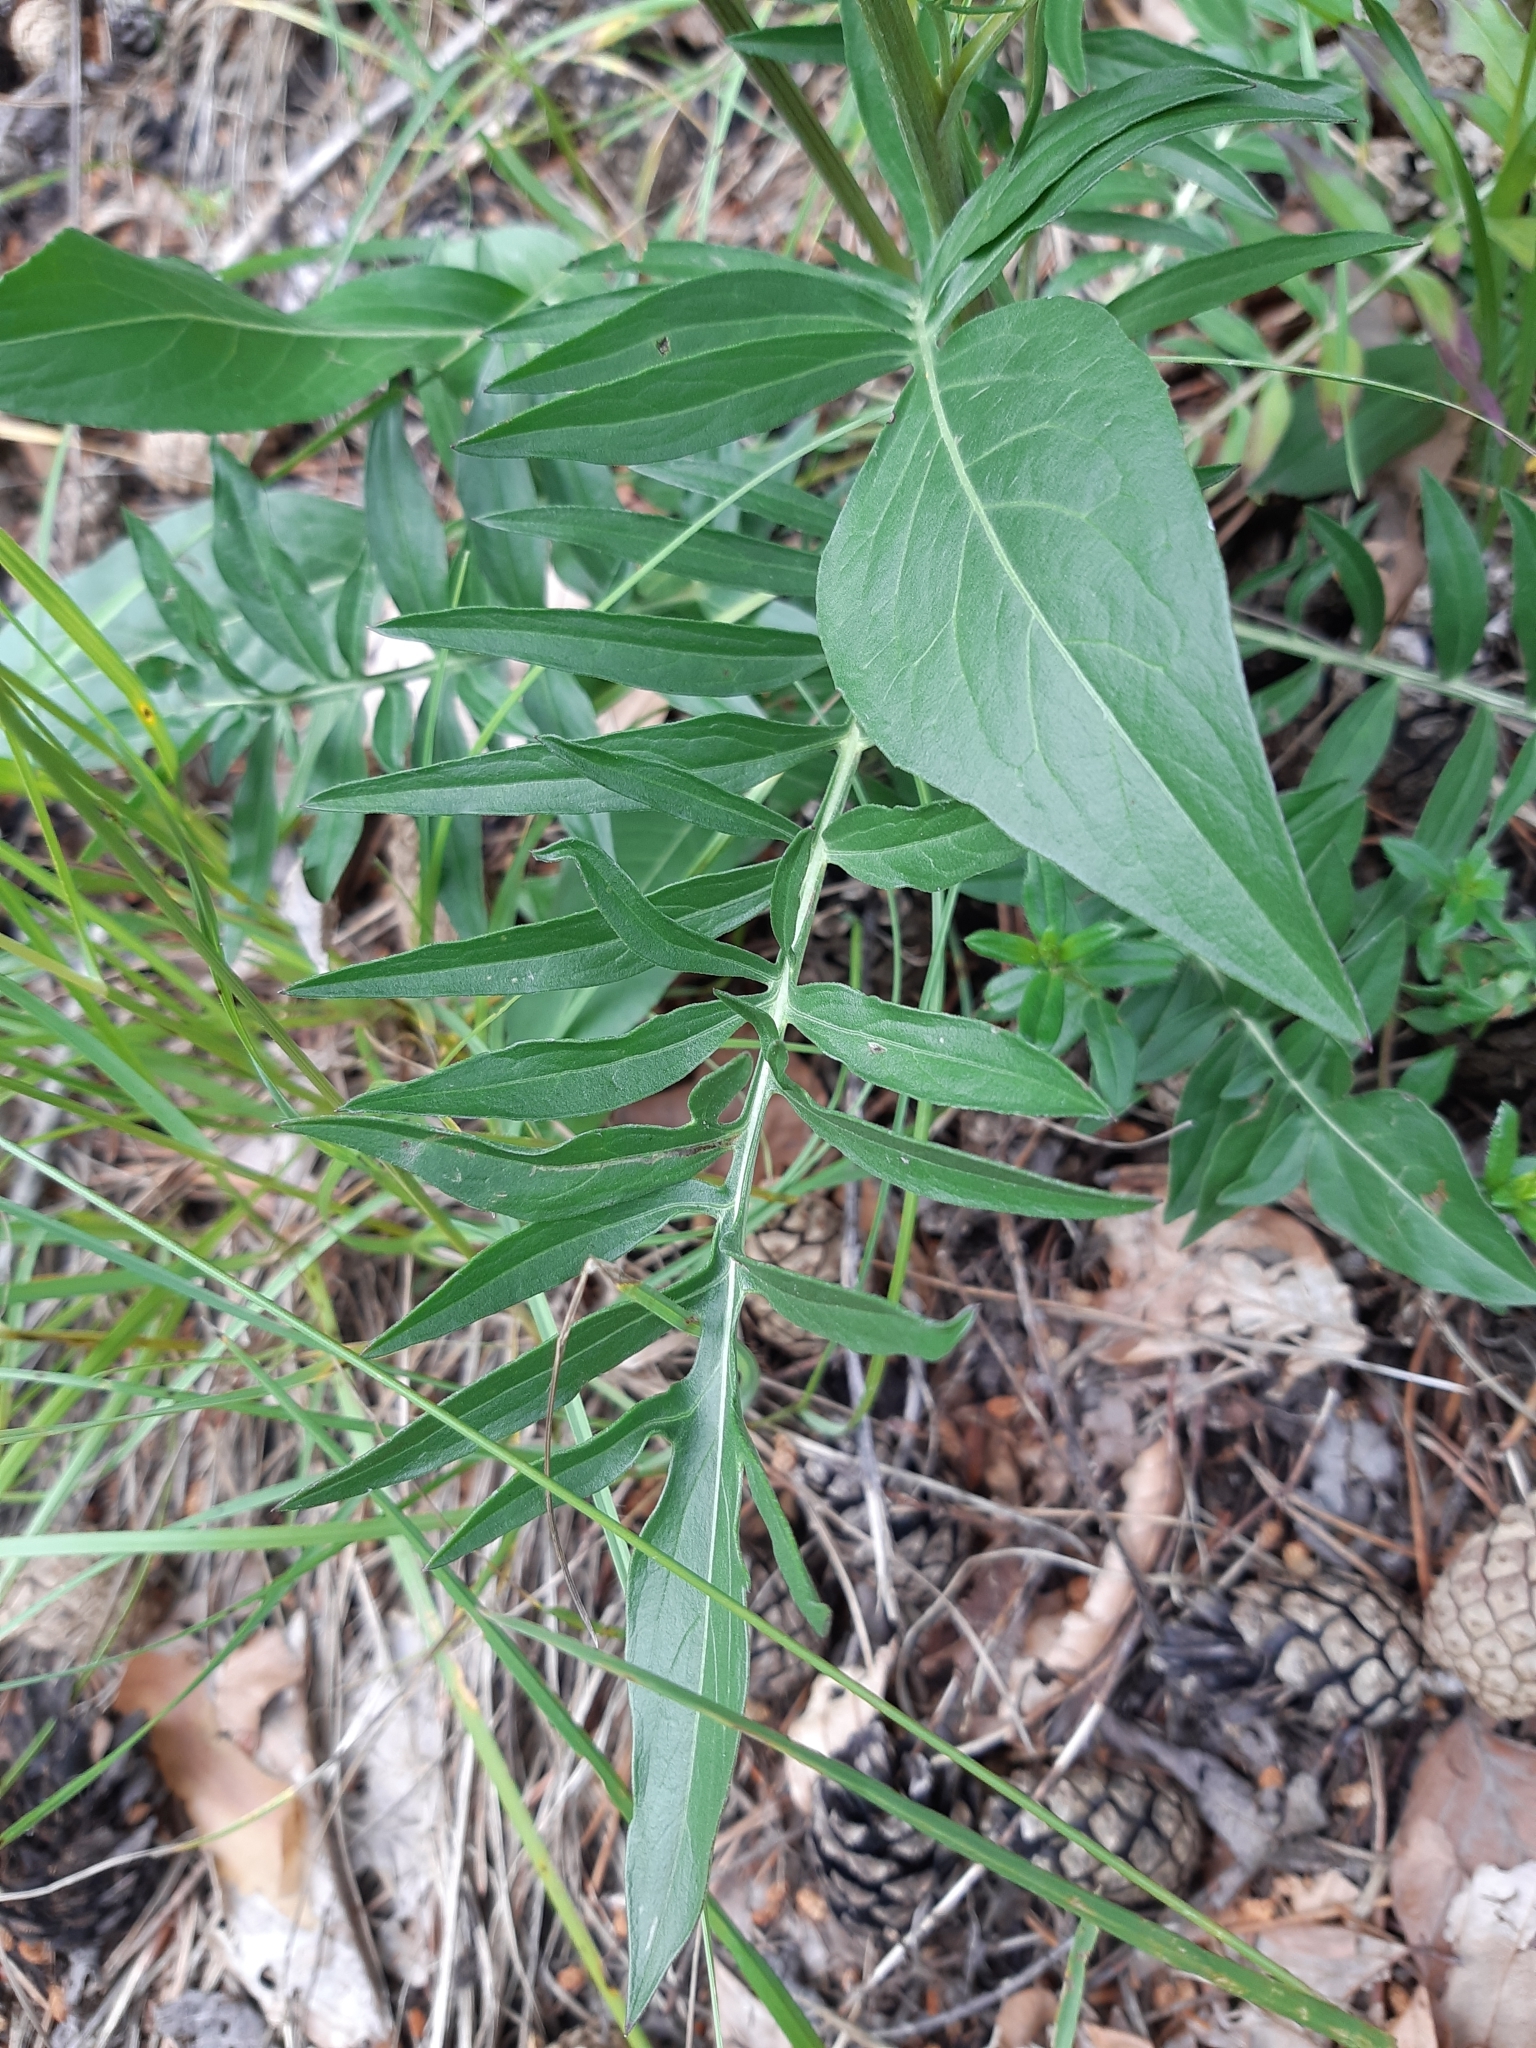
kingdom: Plantae
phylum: Tracheophyta
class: Magnoliopsida
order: Asterales
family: Asteraceae
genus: Centaurea
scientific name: Centaurea scabiosa
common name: Greater knapweed
